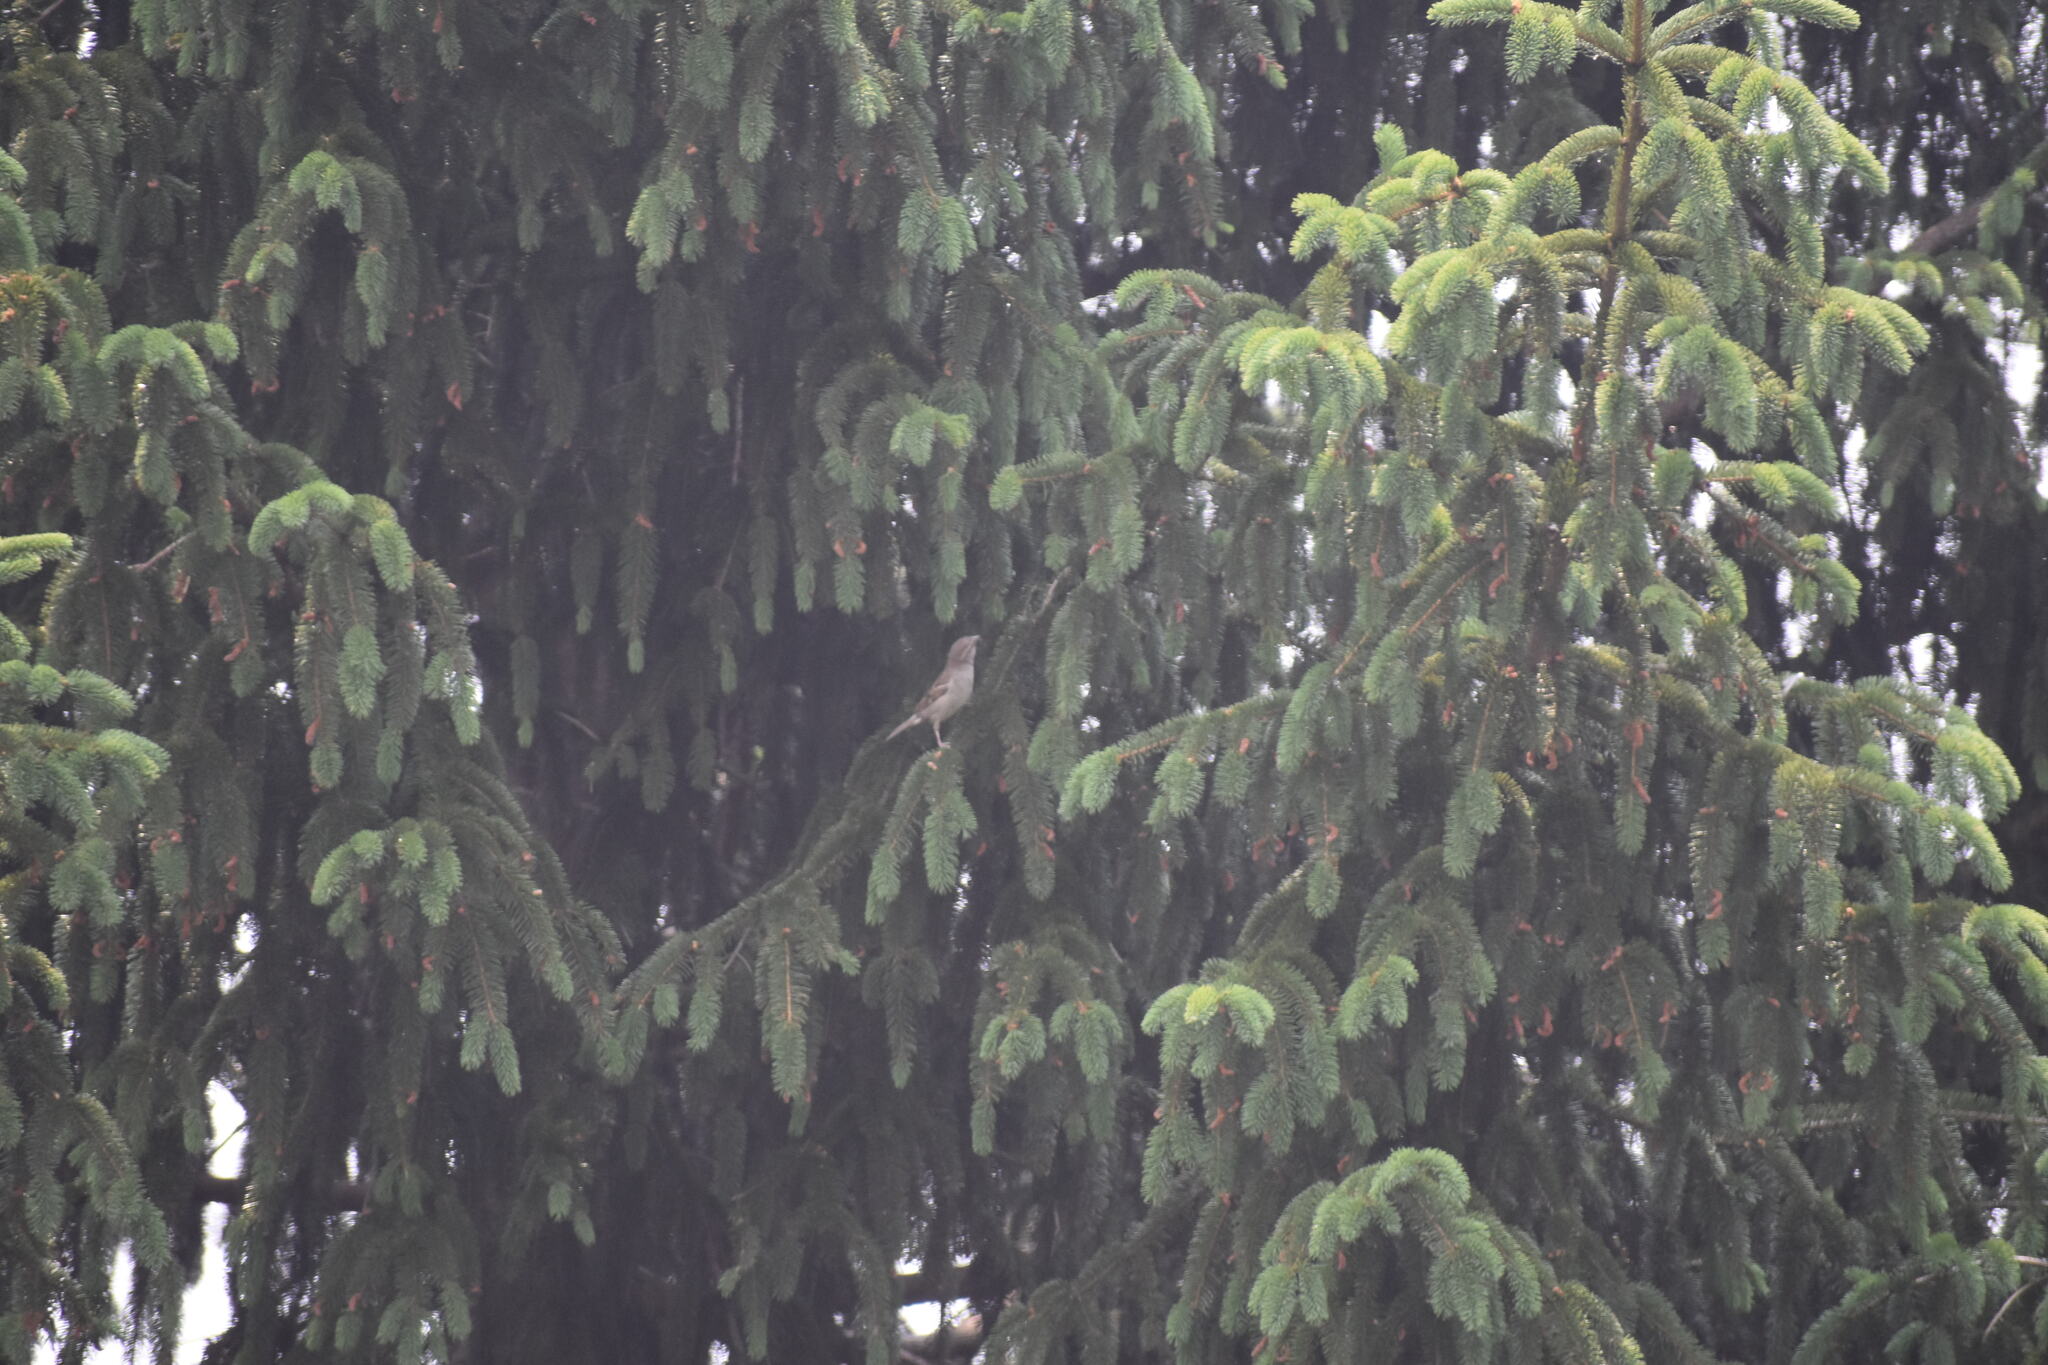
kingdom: Animalia
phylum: Chordata
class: Aves
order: Passeriformes
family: Passeridae
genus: Passer
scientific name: Passer domesticus
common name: House sparrow
